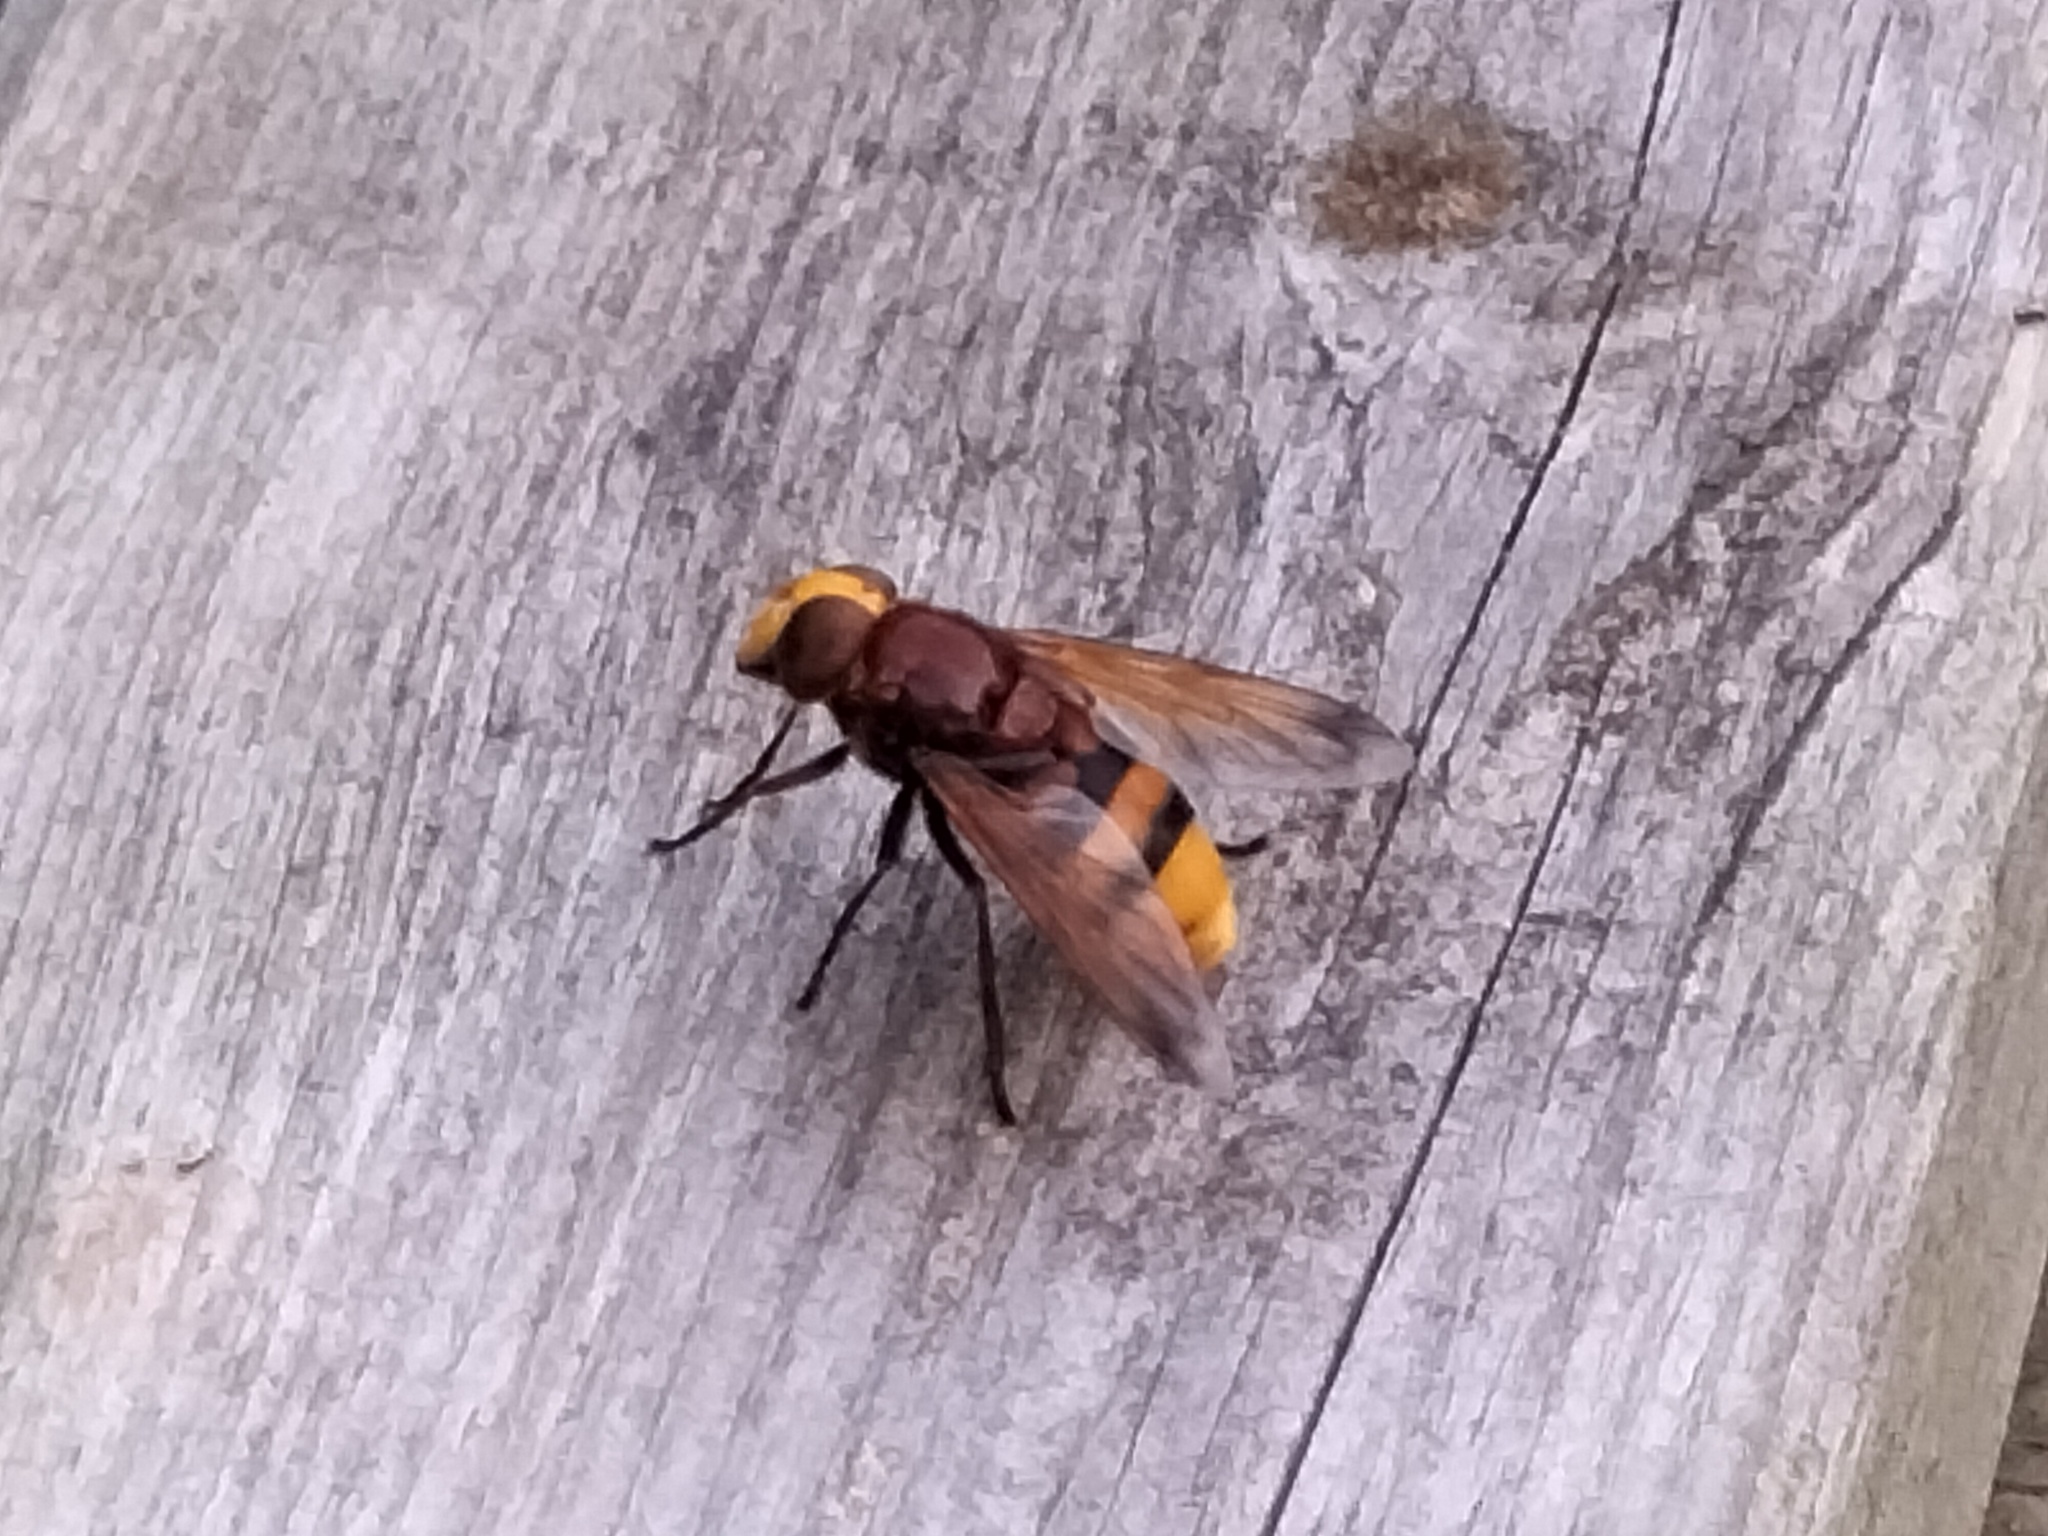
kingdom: Animalia
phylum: Arthropoda
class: Insecta
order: Diptera
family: Syrphidae
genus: Volucella
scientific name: Volucella zonaria
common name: Hornet hoverfly
